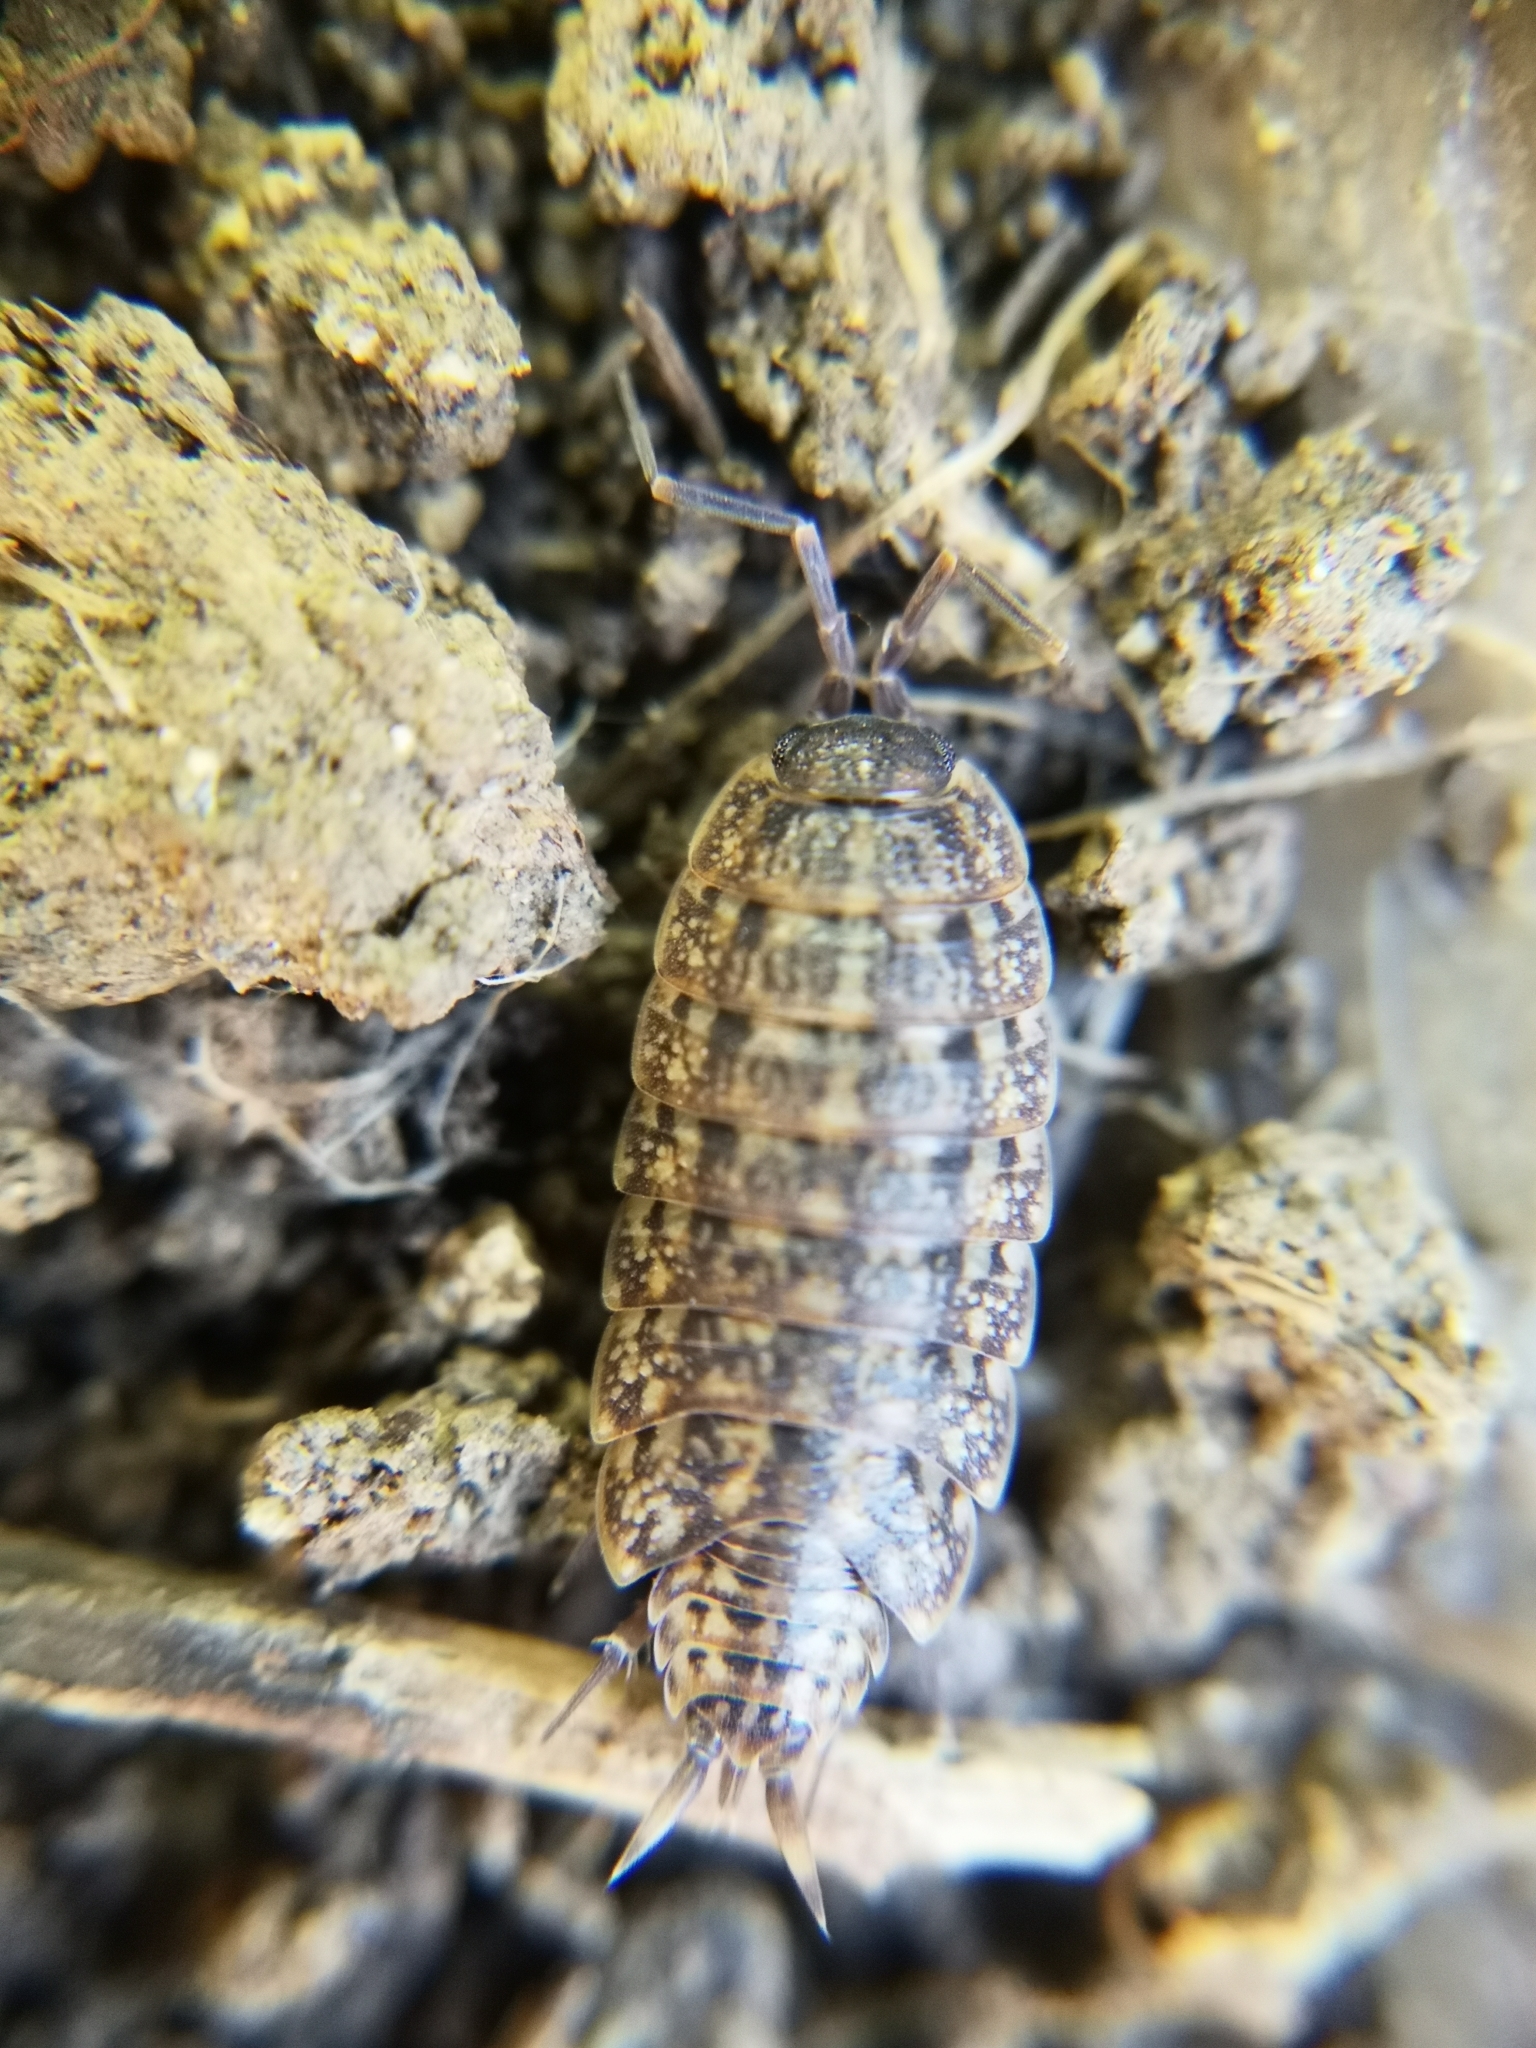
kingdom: Animalia
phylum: Arthropoda
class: Malacostraca
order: Isopoda
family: Agnaridae
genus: Orthometopon
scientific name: Orthometopon dalmatinum
